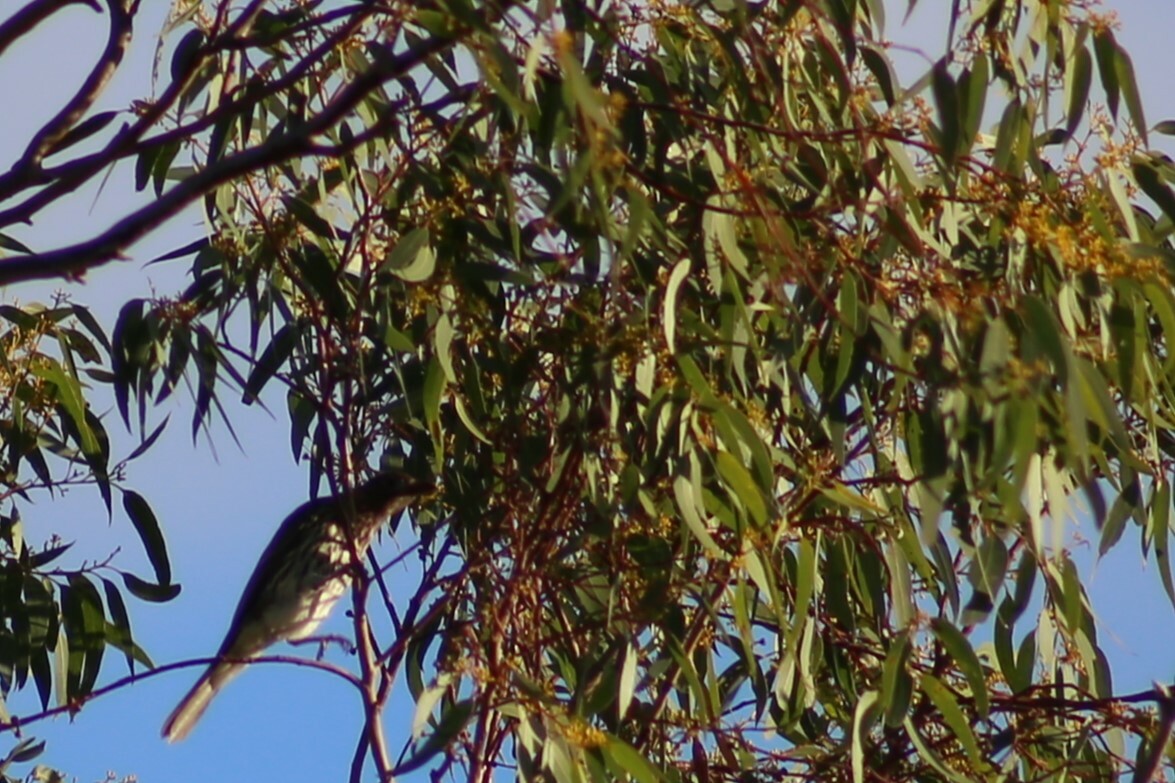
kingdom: Animalia
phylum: Chordata
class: Aves
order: Passeriformes
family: Oriolidae
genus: Sphecotheres
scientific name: Sphecotheres vieilloti
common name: Australasian figbird
